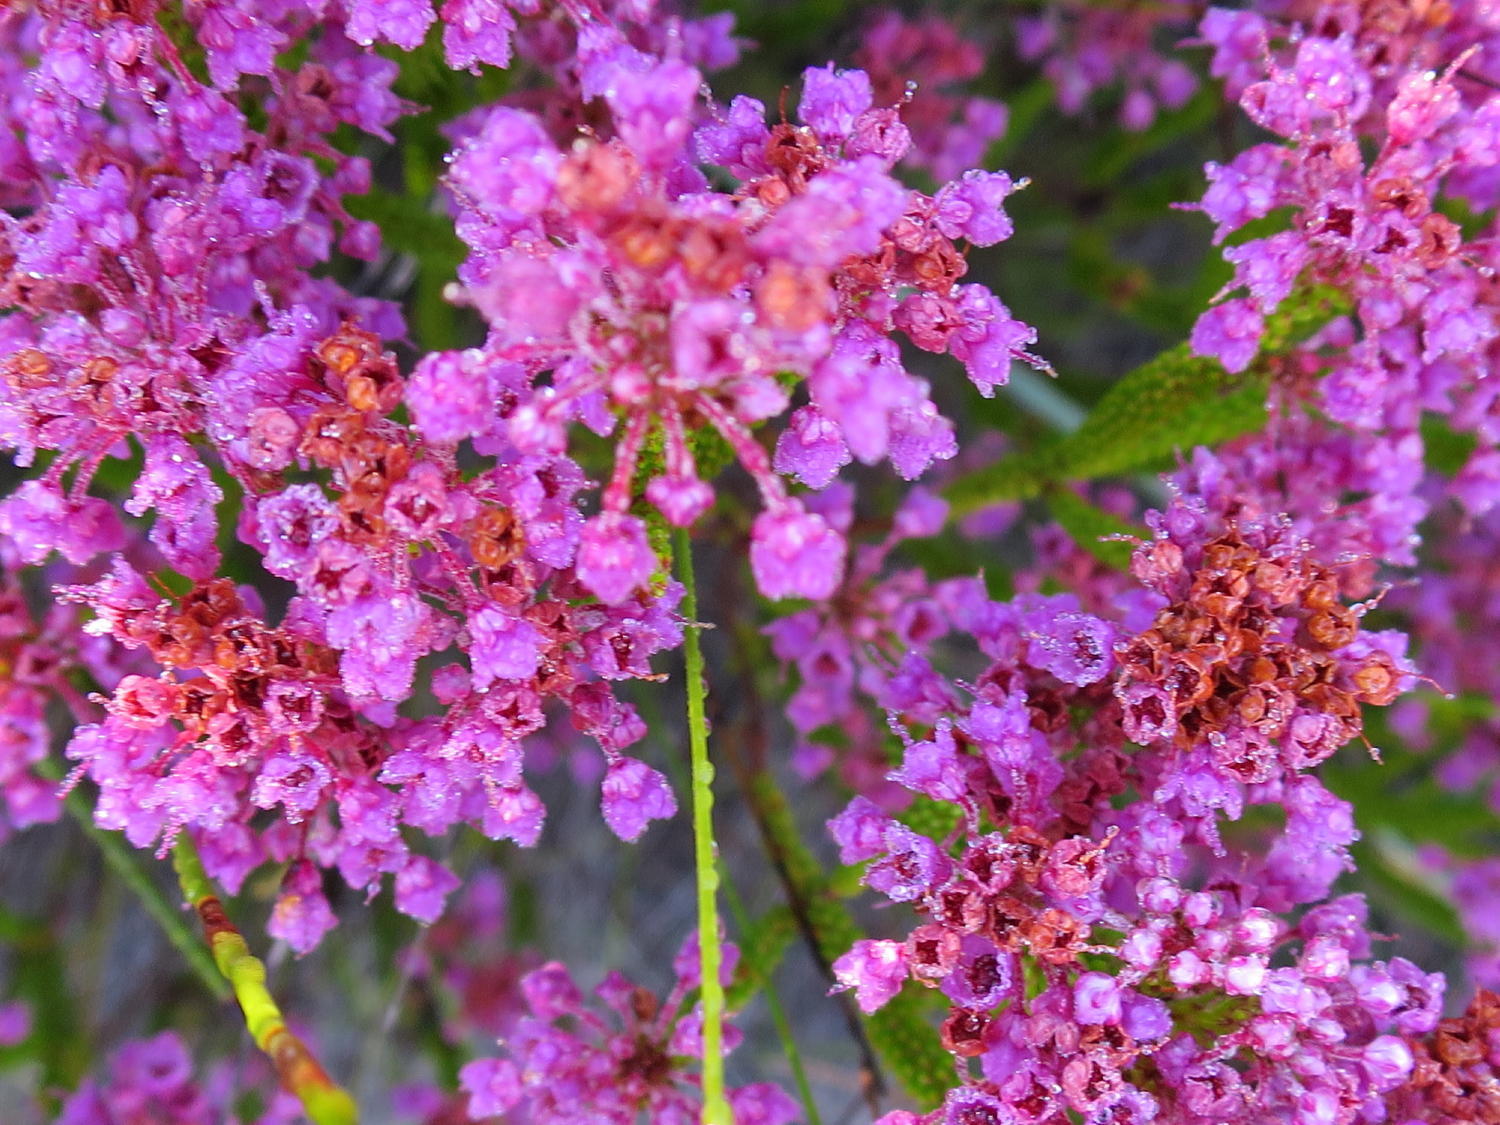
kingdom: Plantae
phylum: Tracheophyta
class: Magnoliopsida
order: Ericales
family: Ericaceae
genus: Erica
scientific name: Erica seriphiifolia
